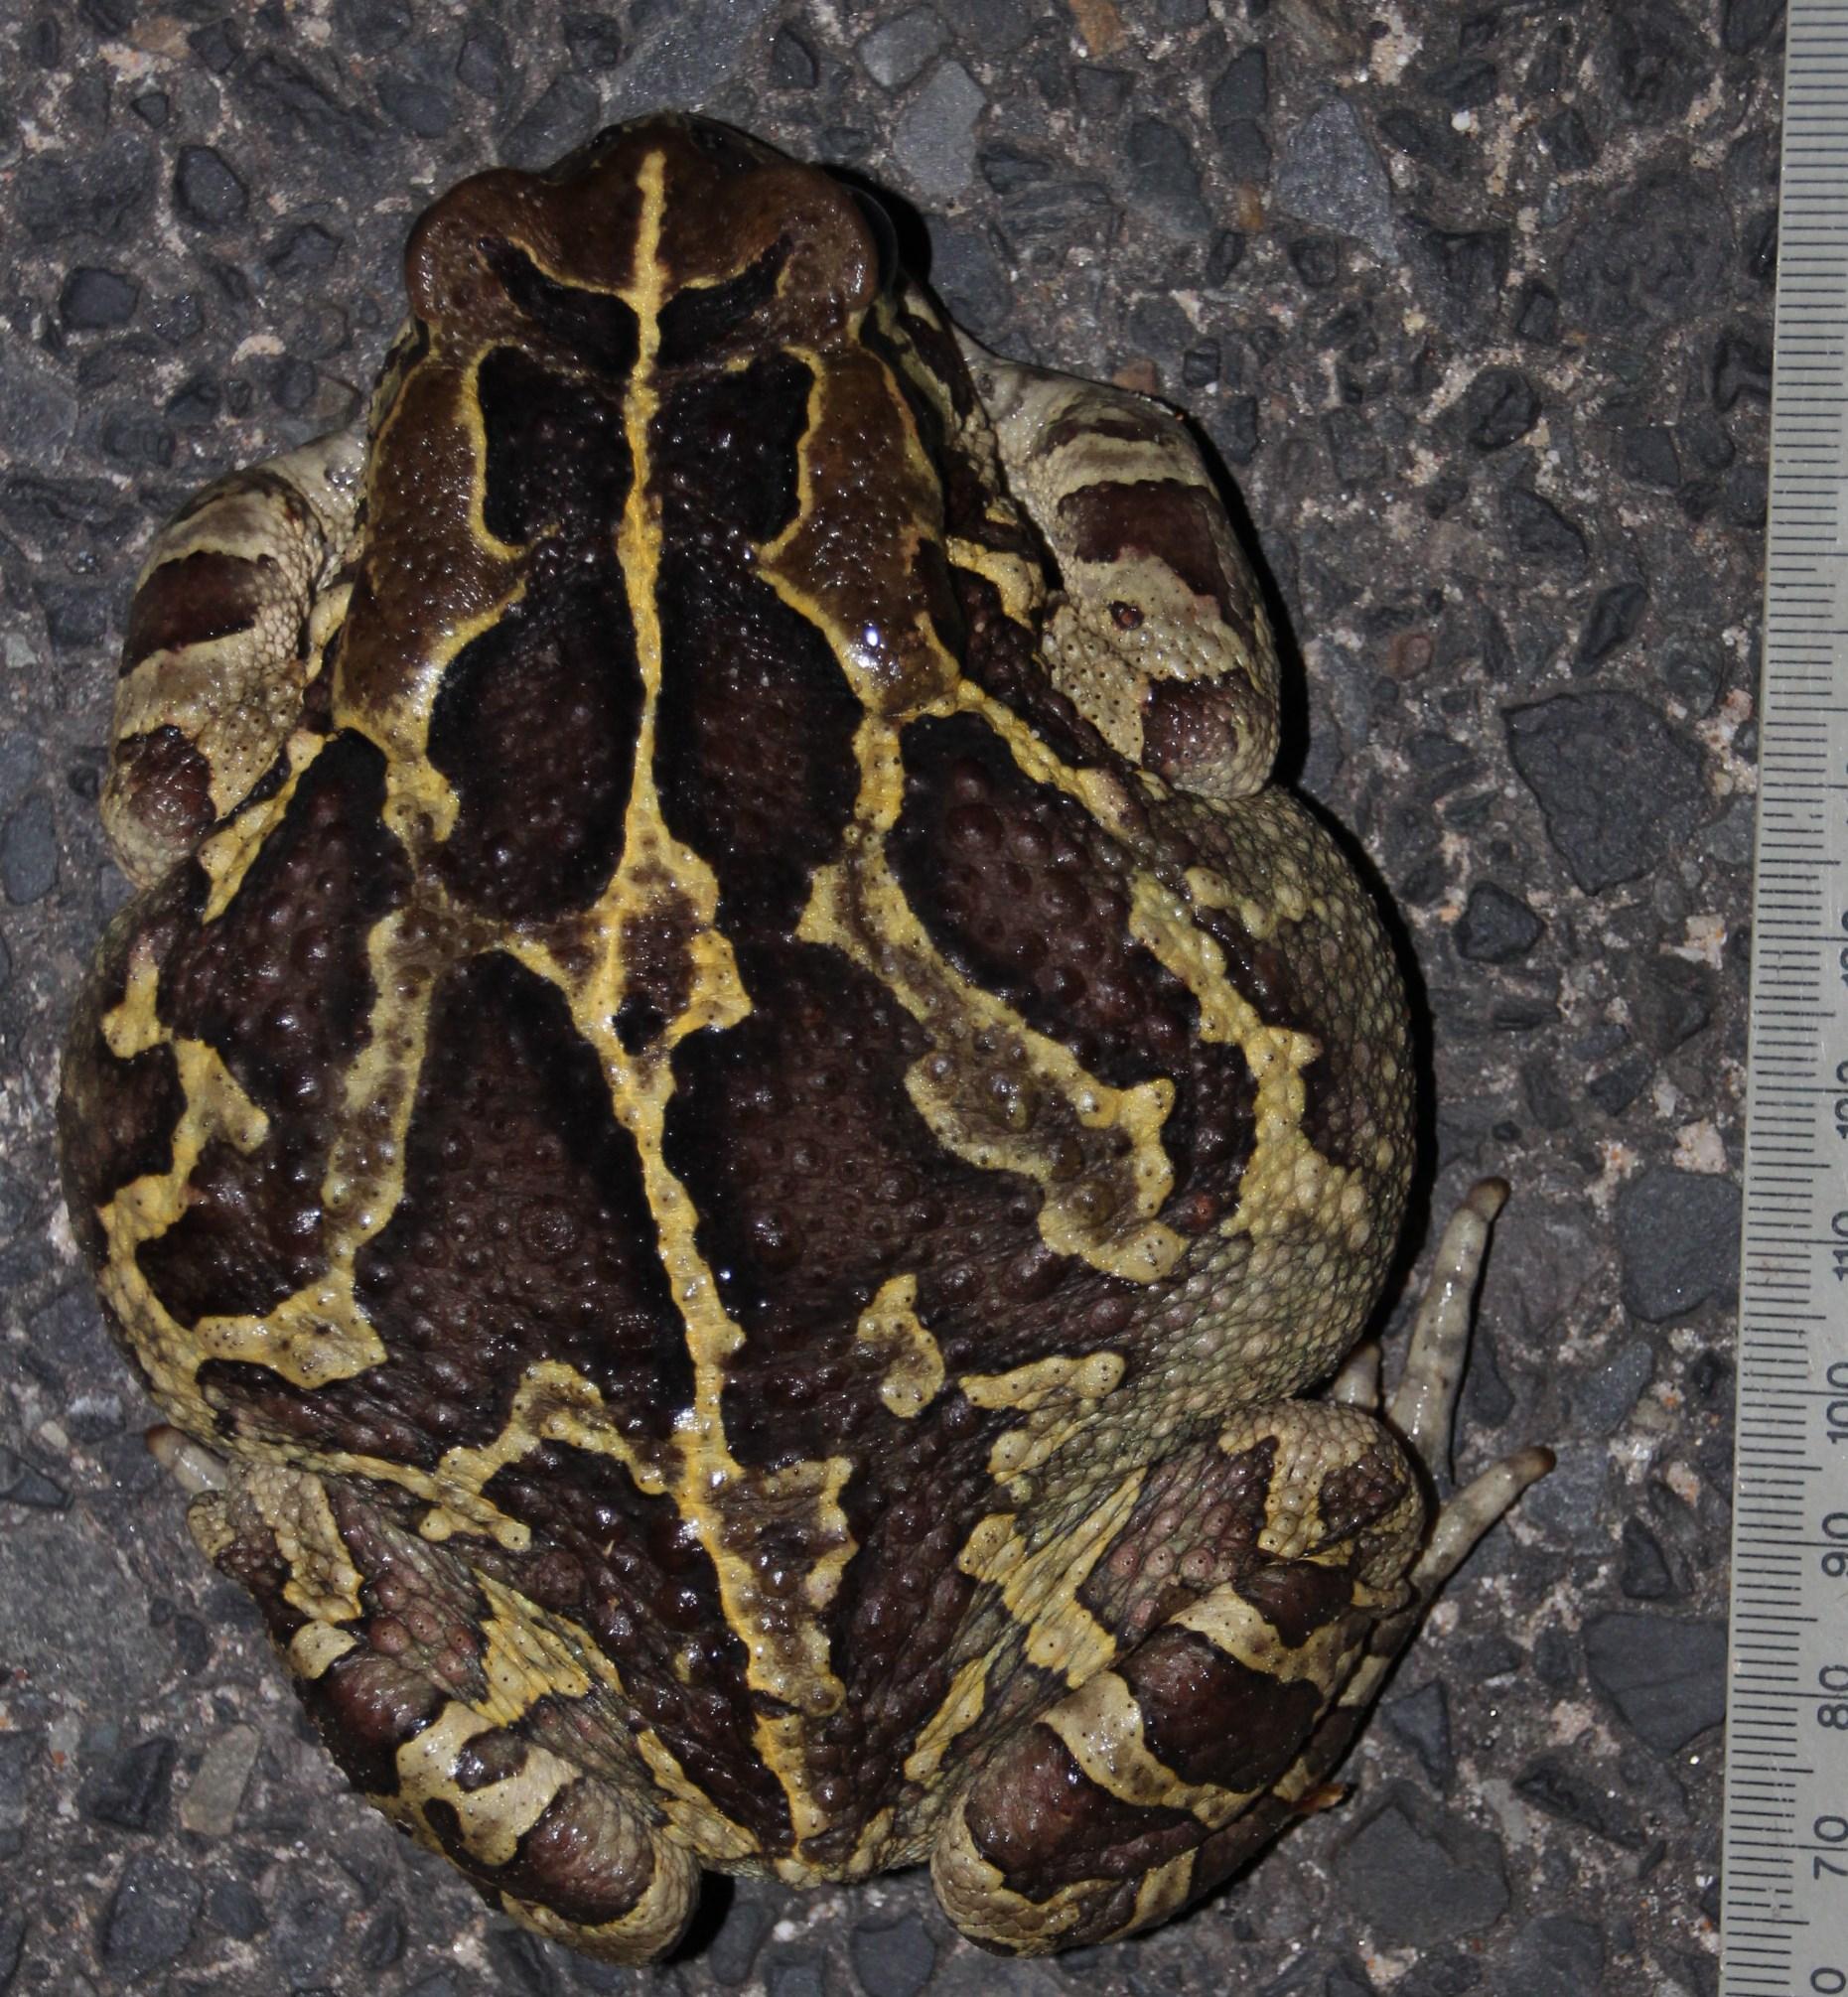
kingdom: Animalia
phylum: Chordata
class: Amphibia
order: Anura
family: Bufonidae
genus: Sclerophrys
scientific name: Sclerophrys pantherina
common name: Panther toad
